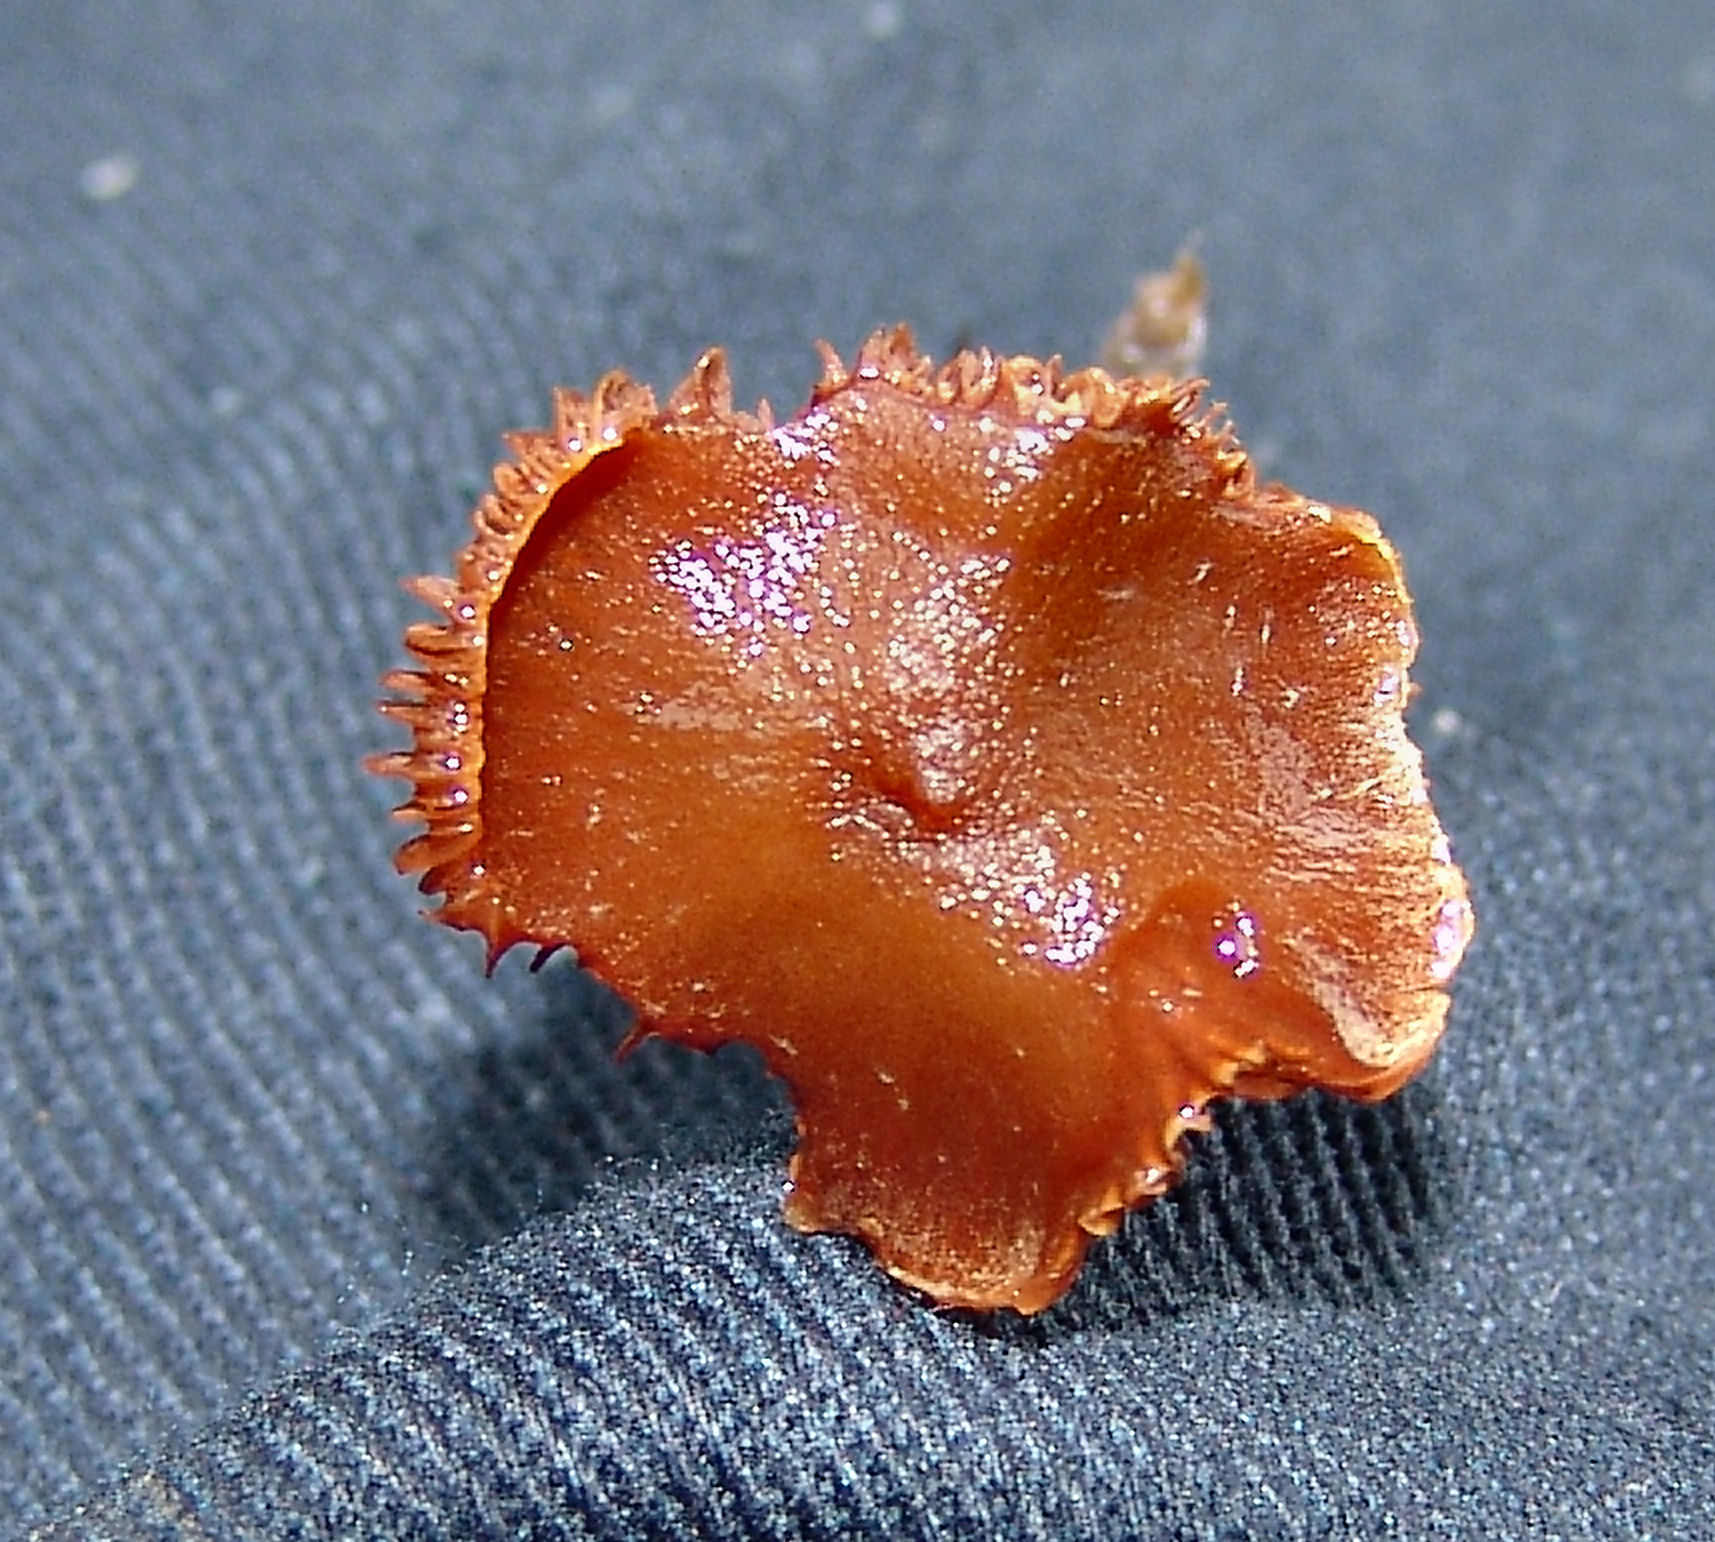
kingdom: Fungi
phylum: Basidiomycota
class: Agaricomycetes
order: Agaricales
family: Cortinariaceae
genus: Cortinarius
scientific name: Cortinarius
